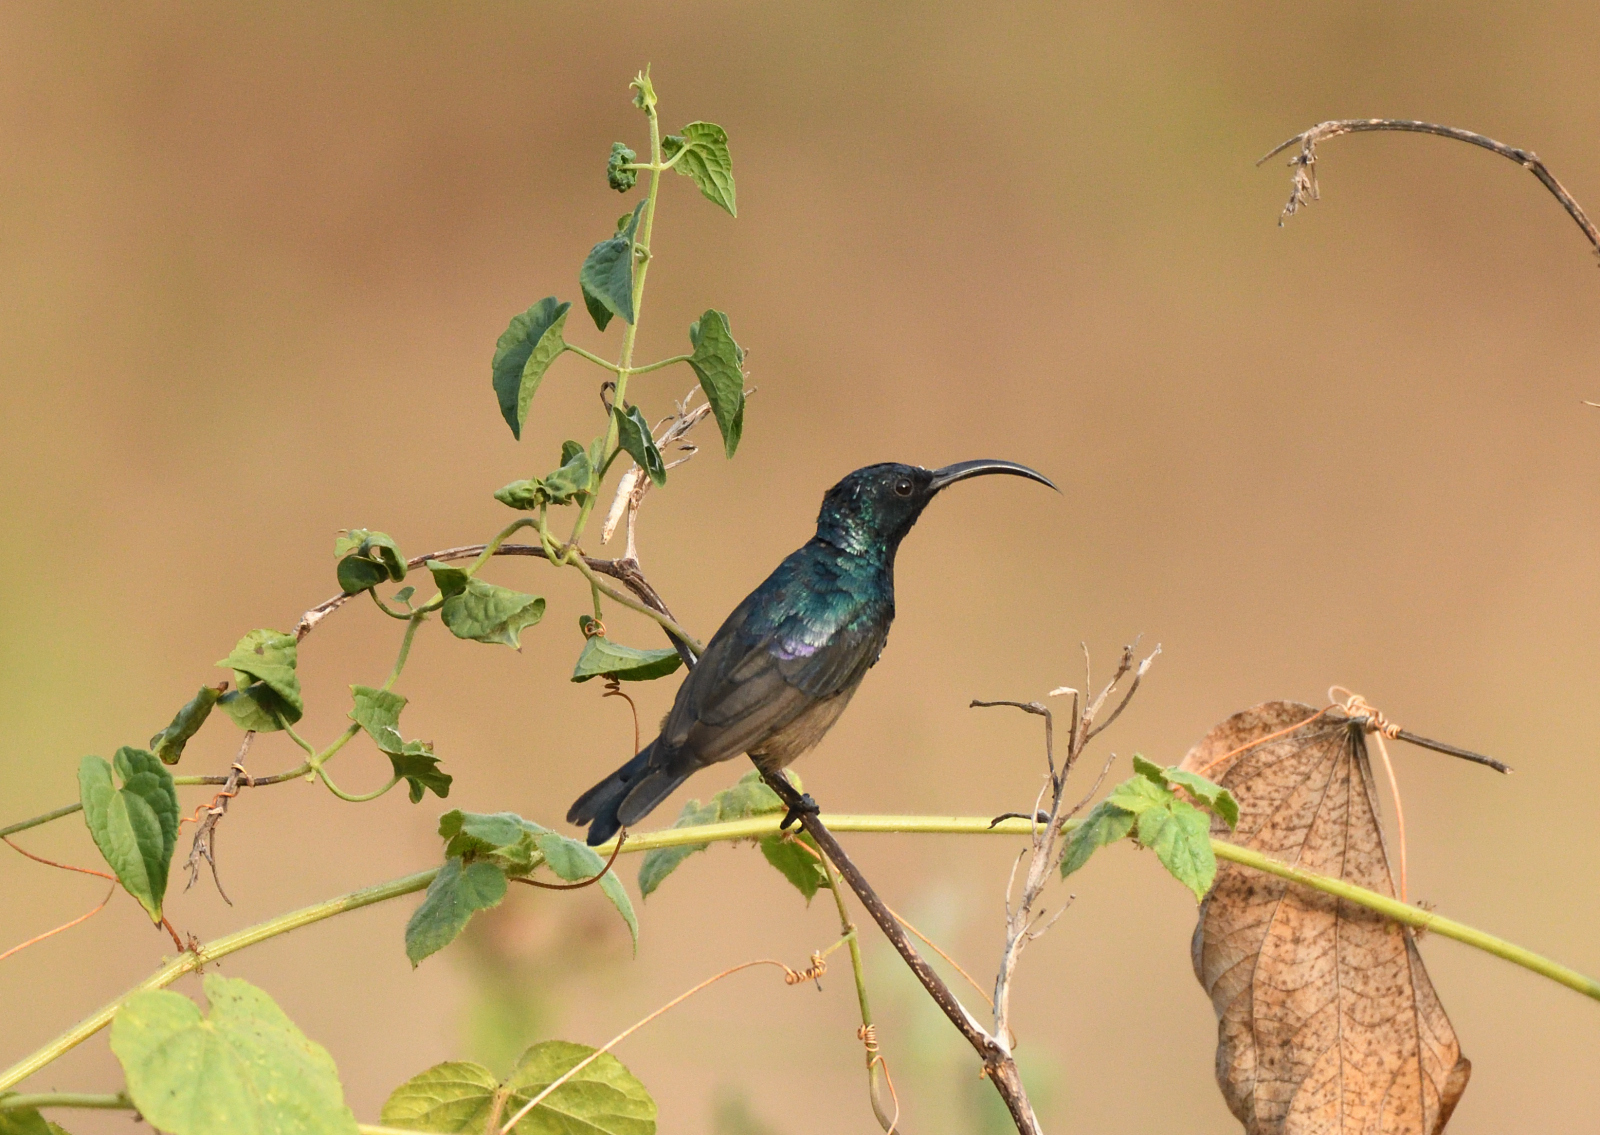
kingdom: Animalia
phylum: Chordata
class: Aves
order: Passeriformes
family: Nectariniidae
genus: Cinnyris
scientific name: Cinnyris lotenius
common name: Loten's sunbird
